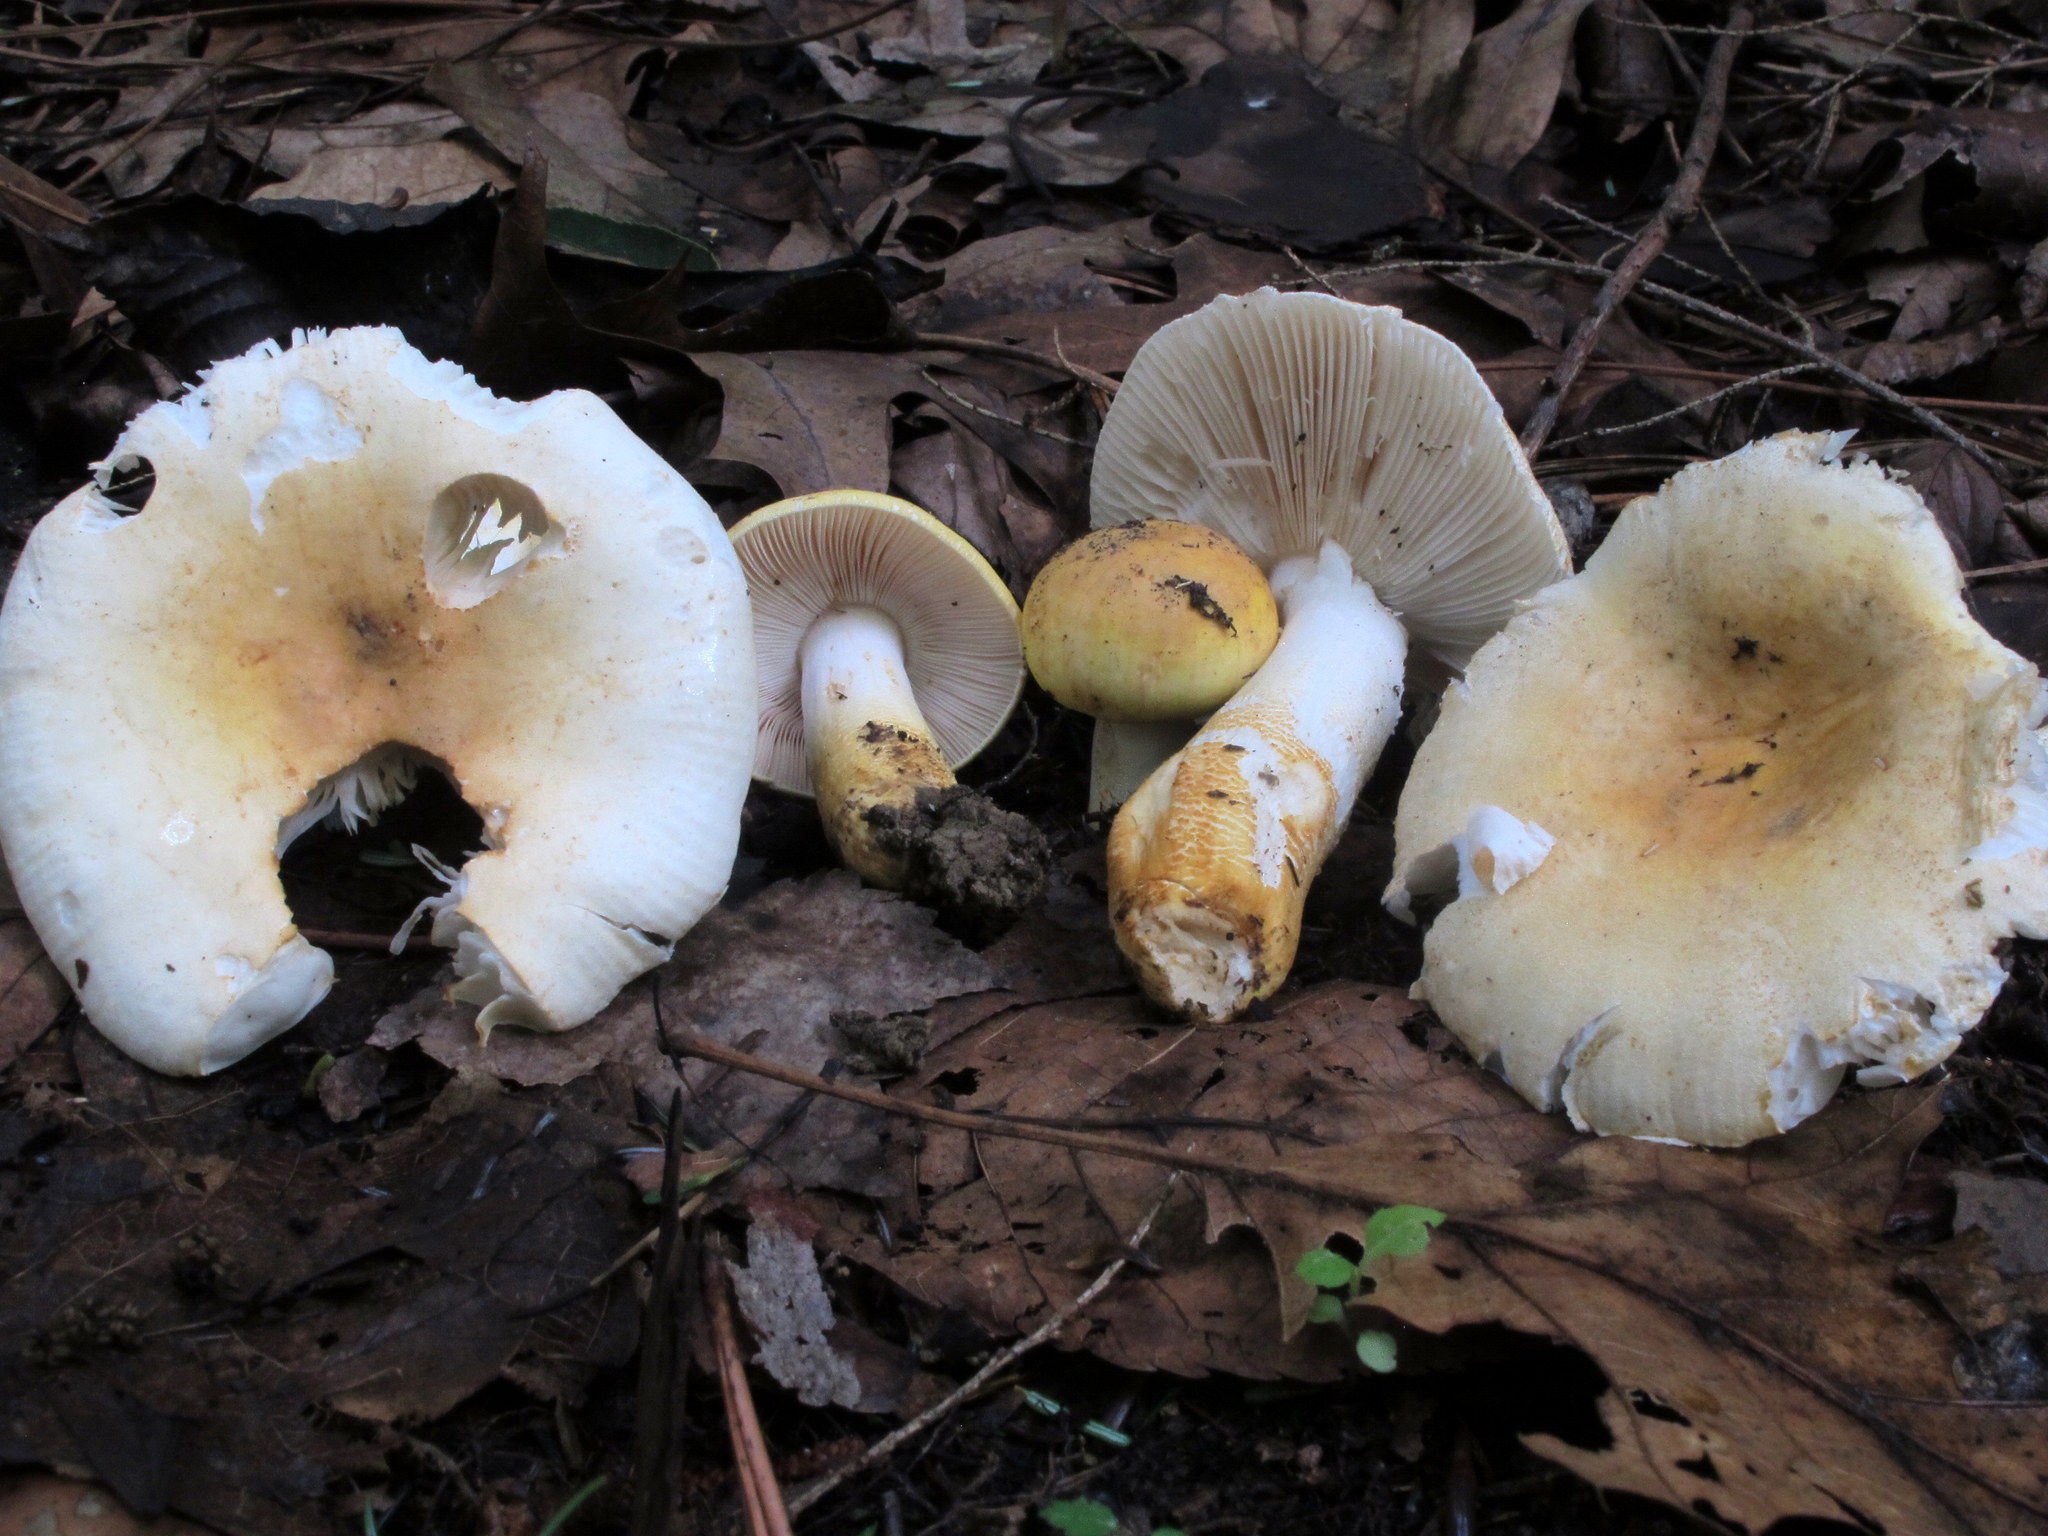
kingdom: Fungi
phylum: Basidiomycota
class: Agaricomycetes
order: Russulales
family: Russulaceae
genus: Russula
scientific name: Russula ballouii
